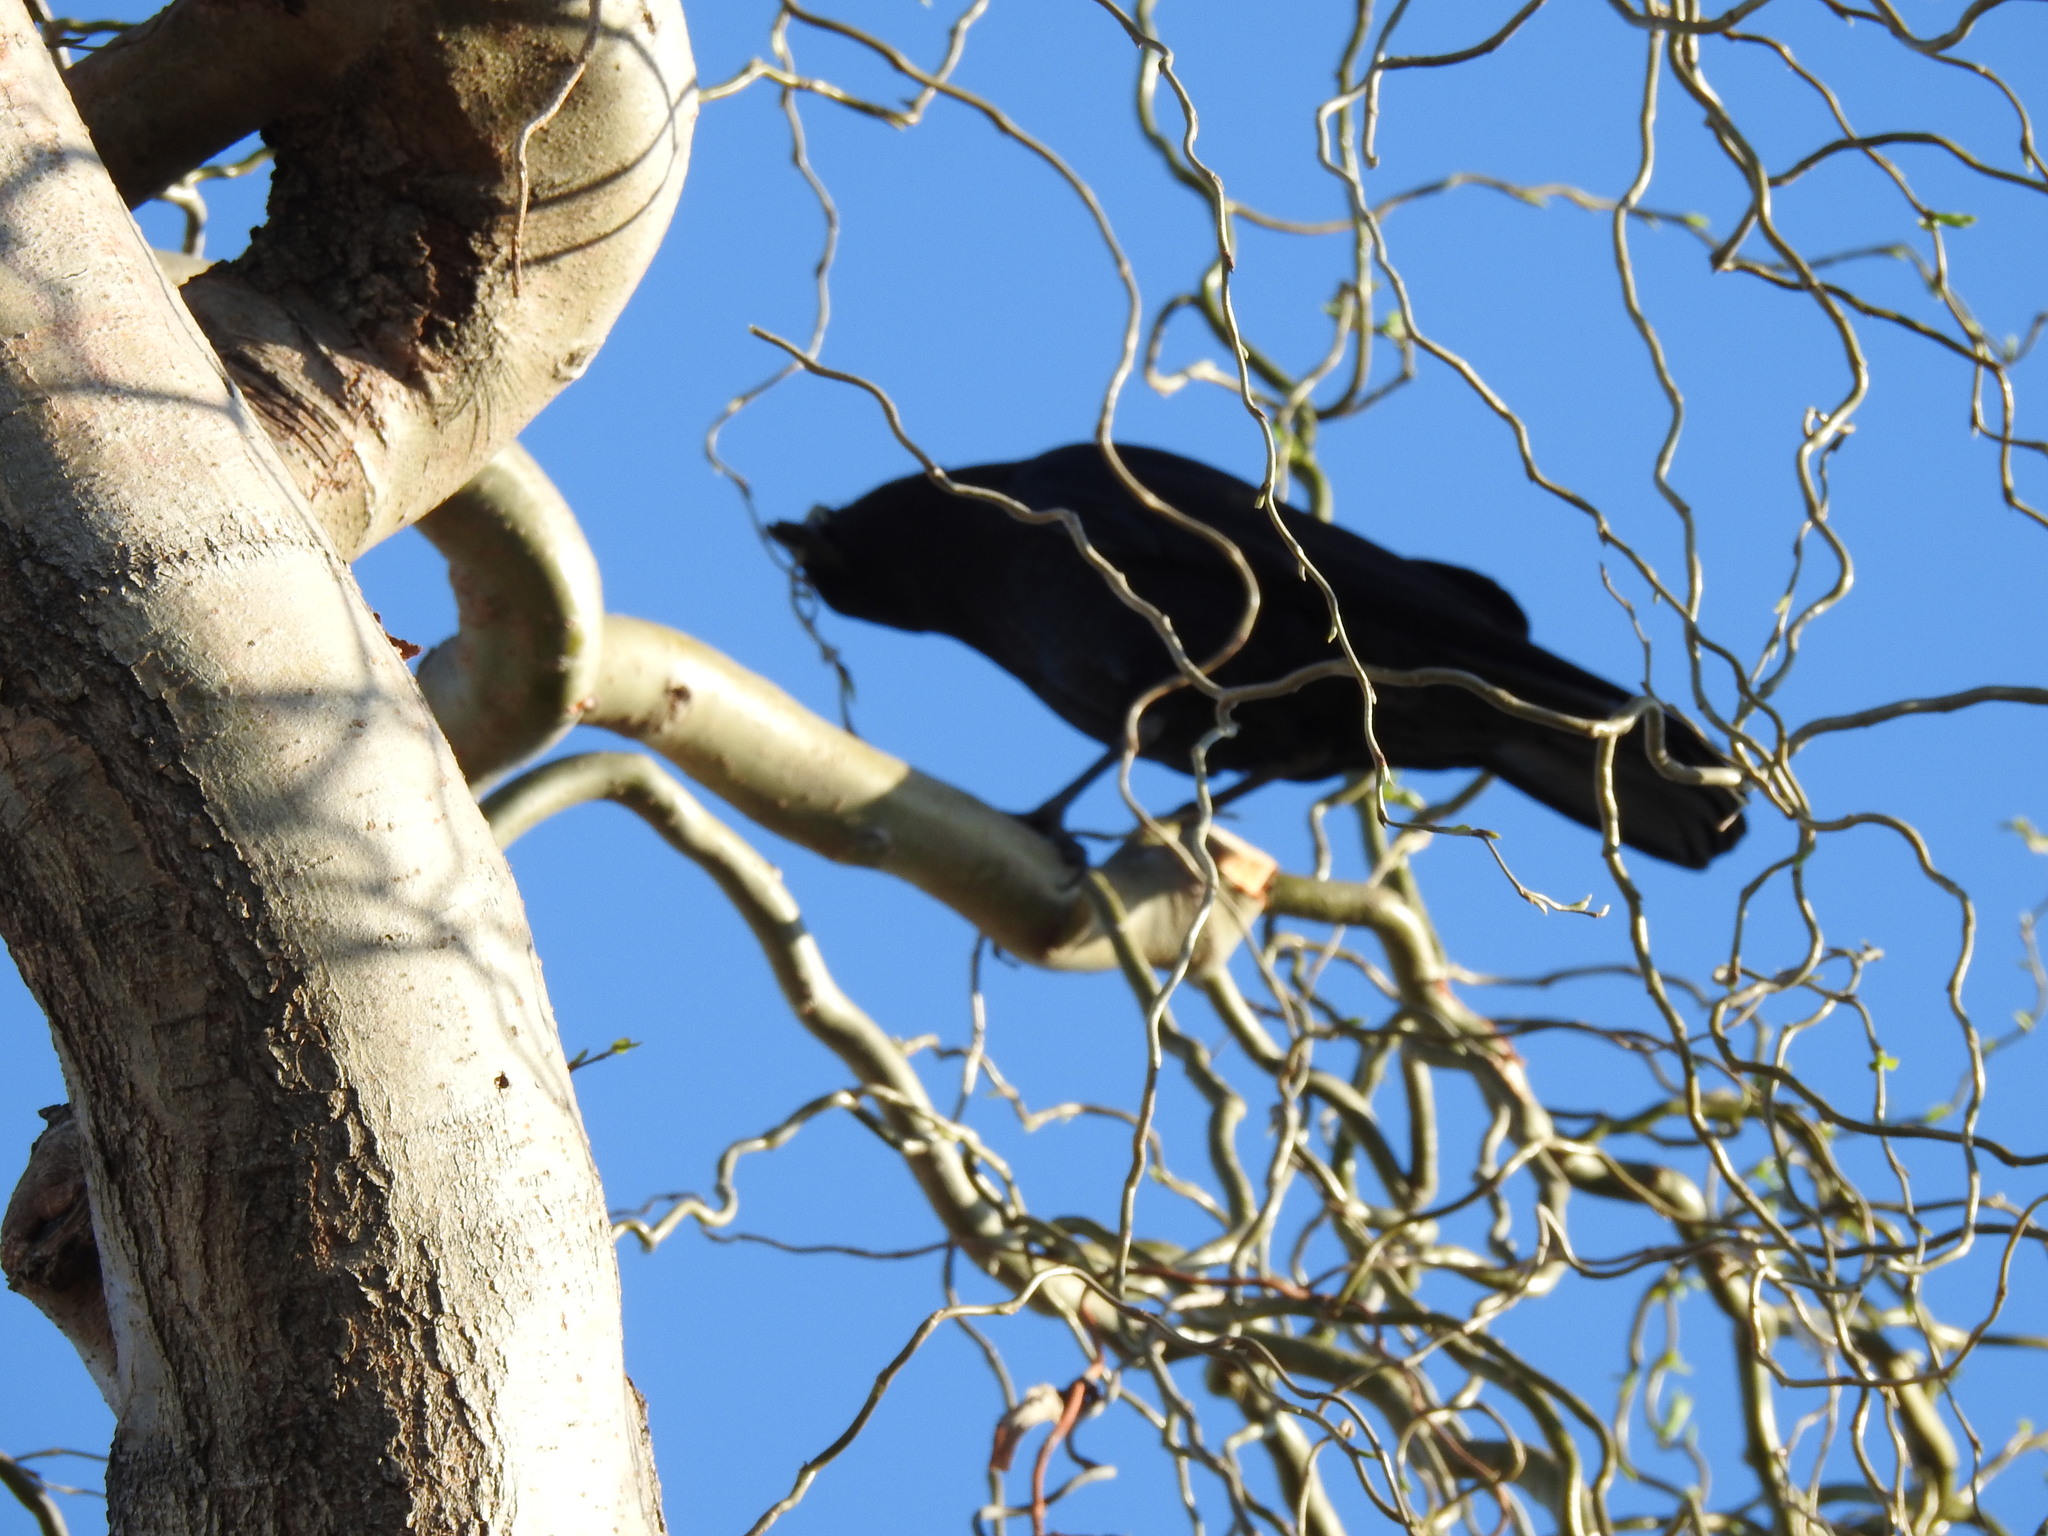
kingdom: Animalia
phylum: Chordata
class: Aves
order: Passeriformes
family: Corvidae
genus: Corvus
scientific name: Corvus brachyrhynchos
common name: American crow
